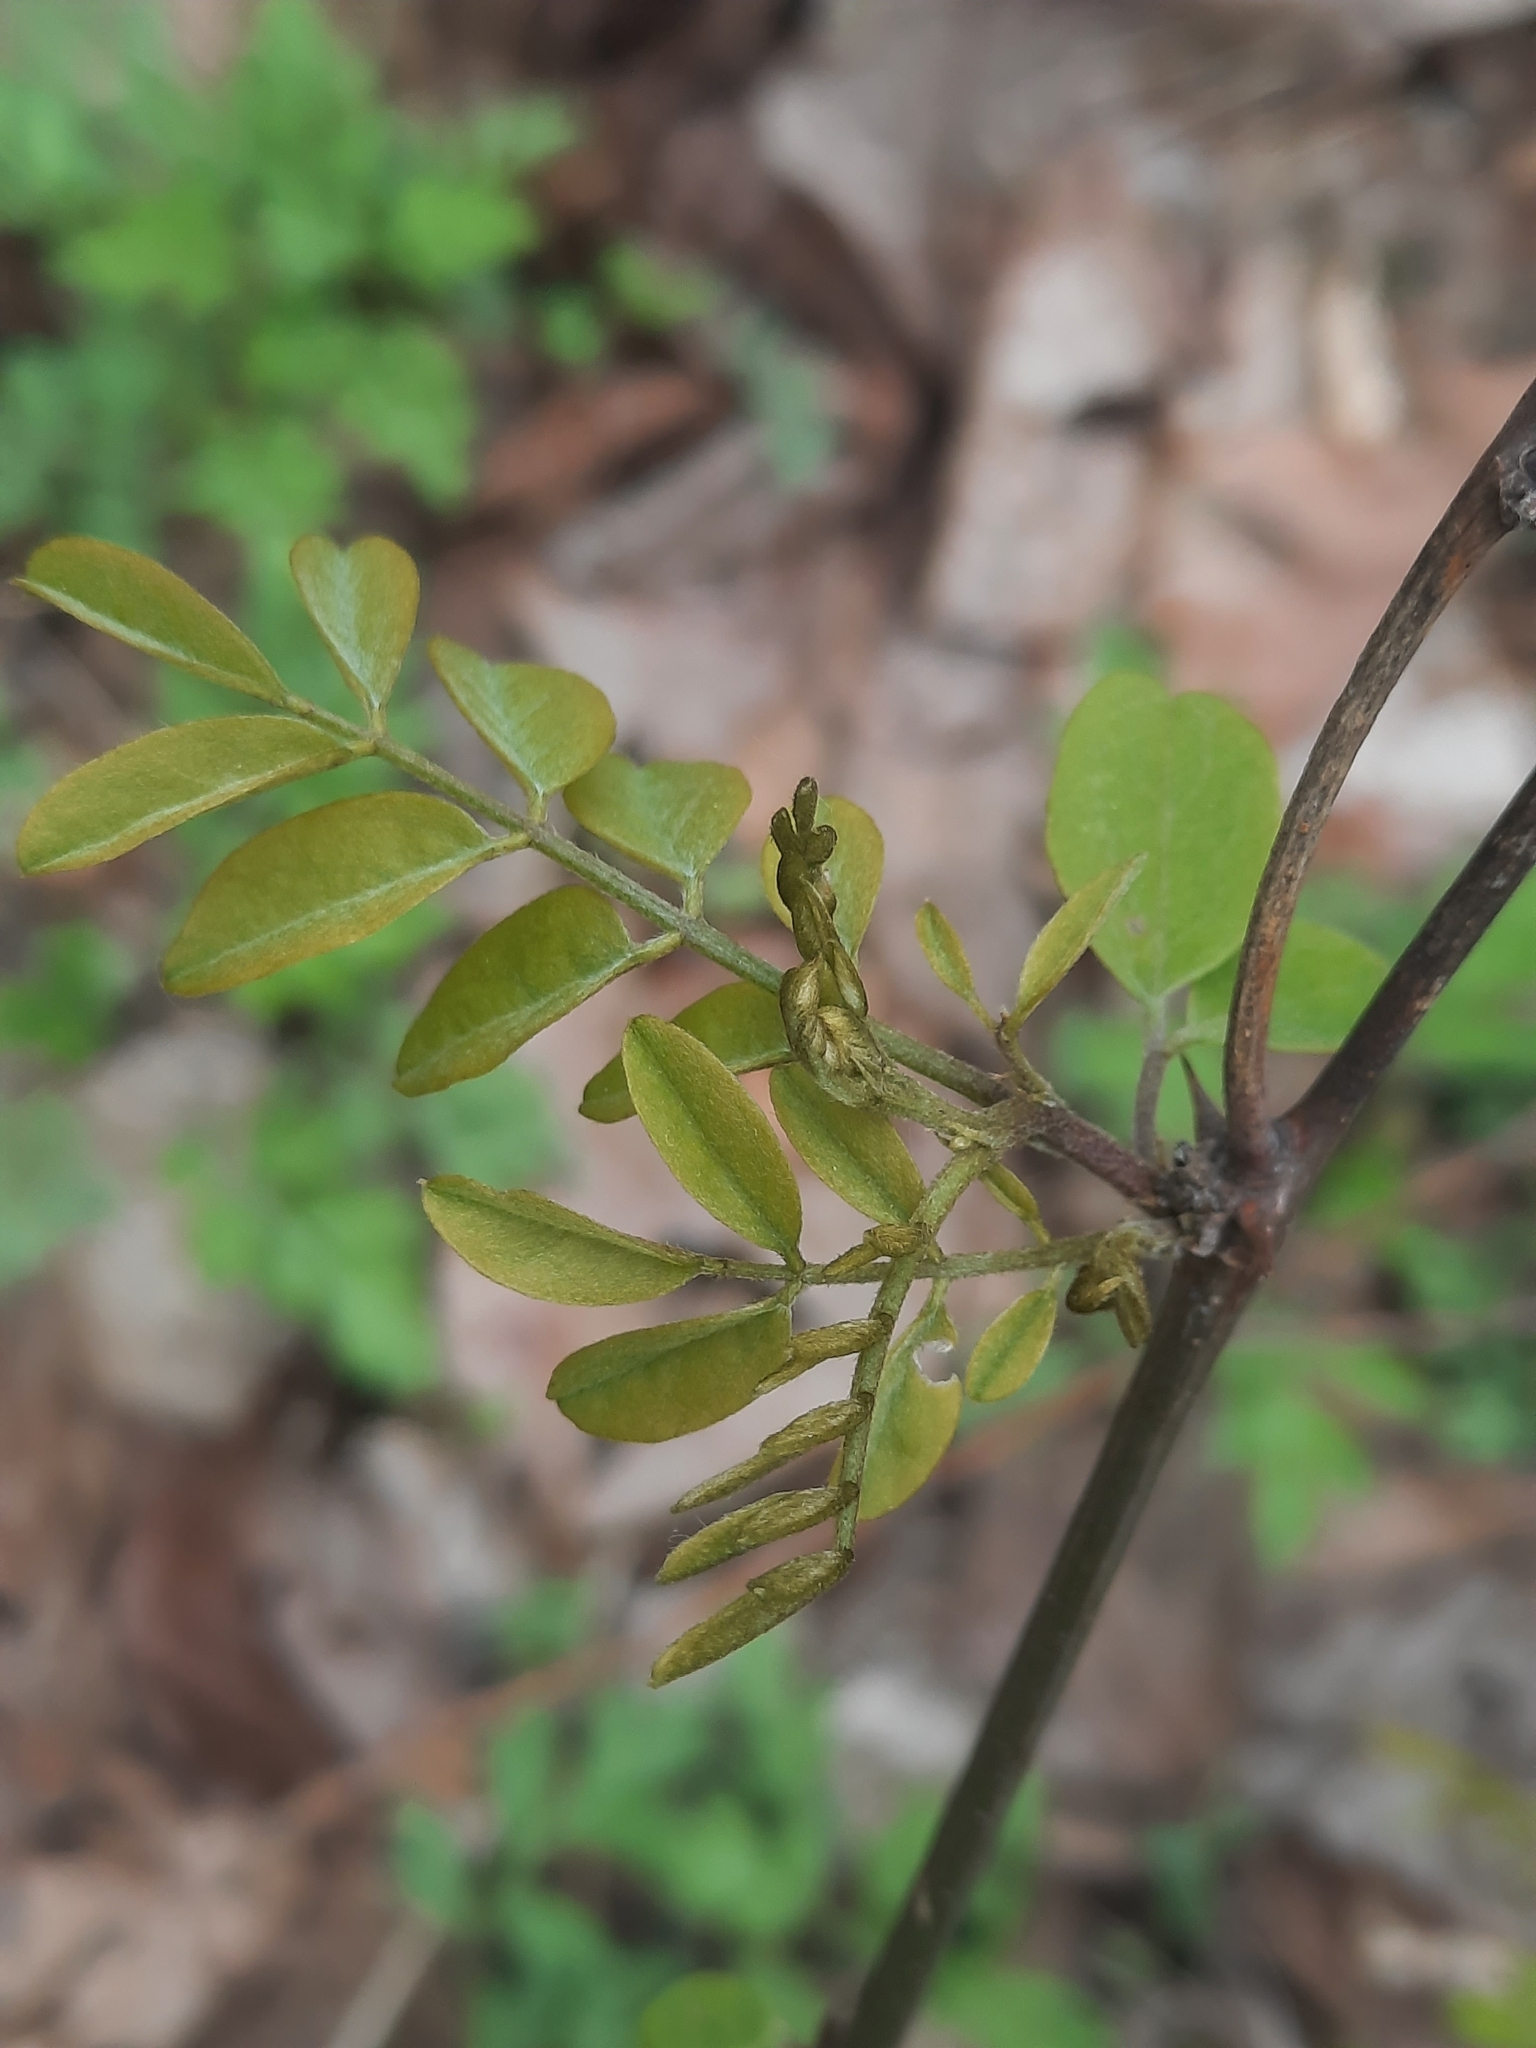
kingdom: Plantae
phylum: Tracheophyta
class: Magnoliopsida
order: Fabales
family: Fabaceae
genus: Robinia
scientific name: Robinia pseudoacacia
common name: Black locust
